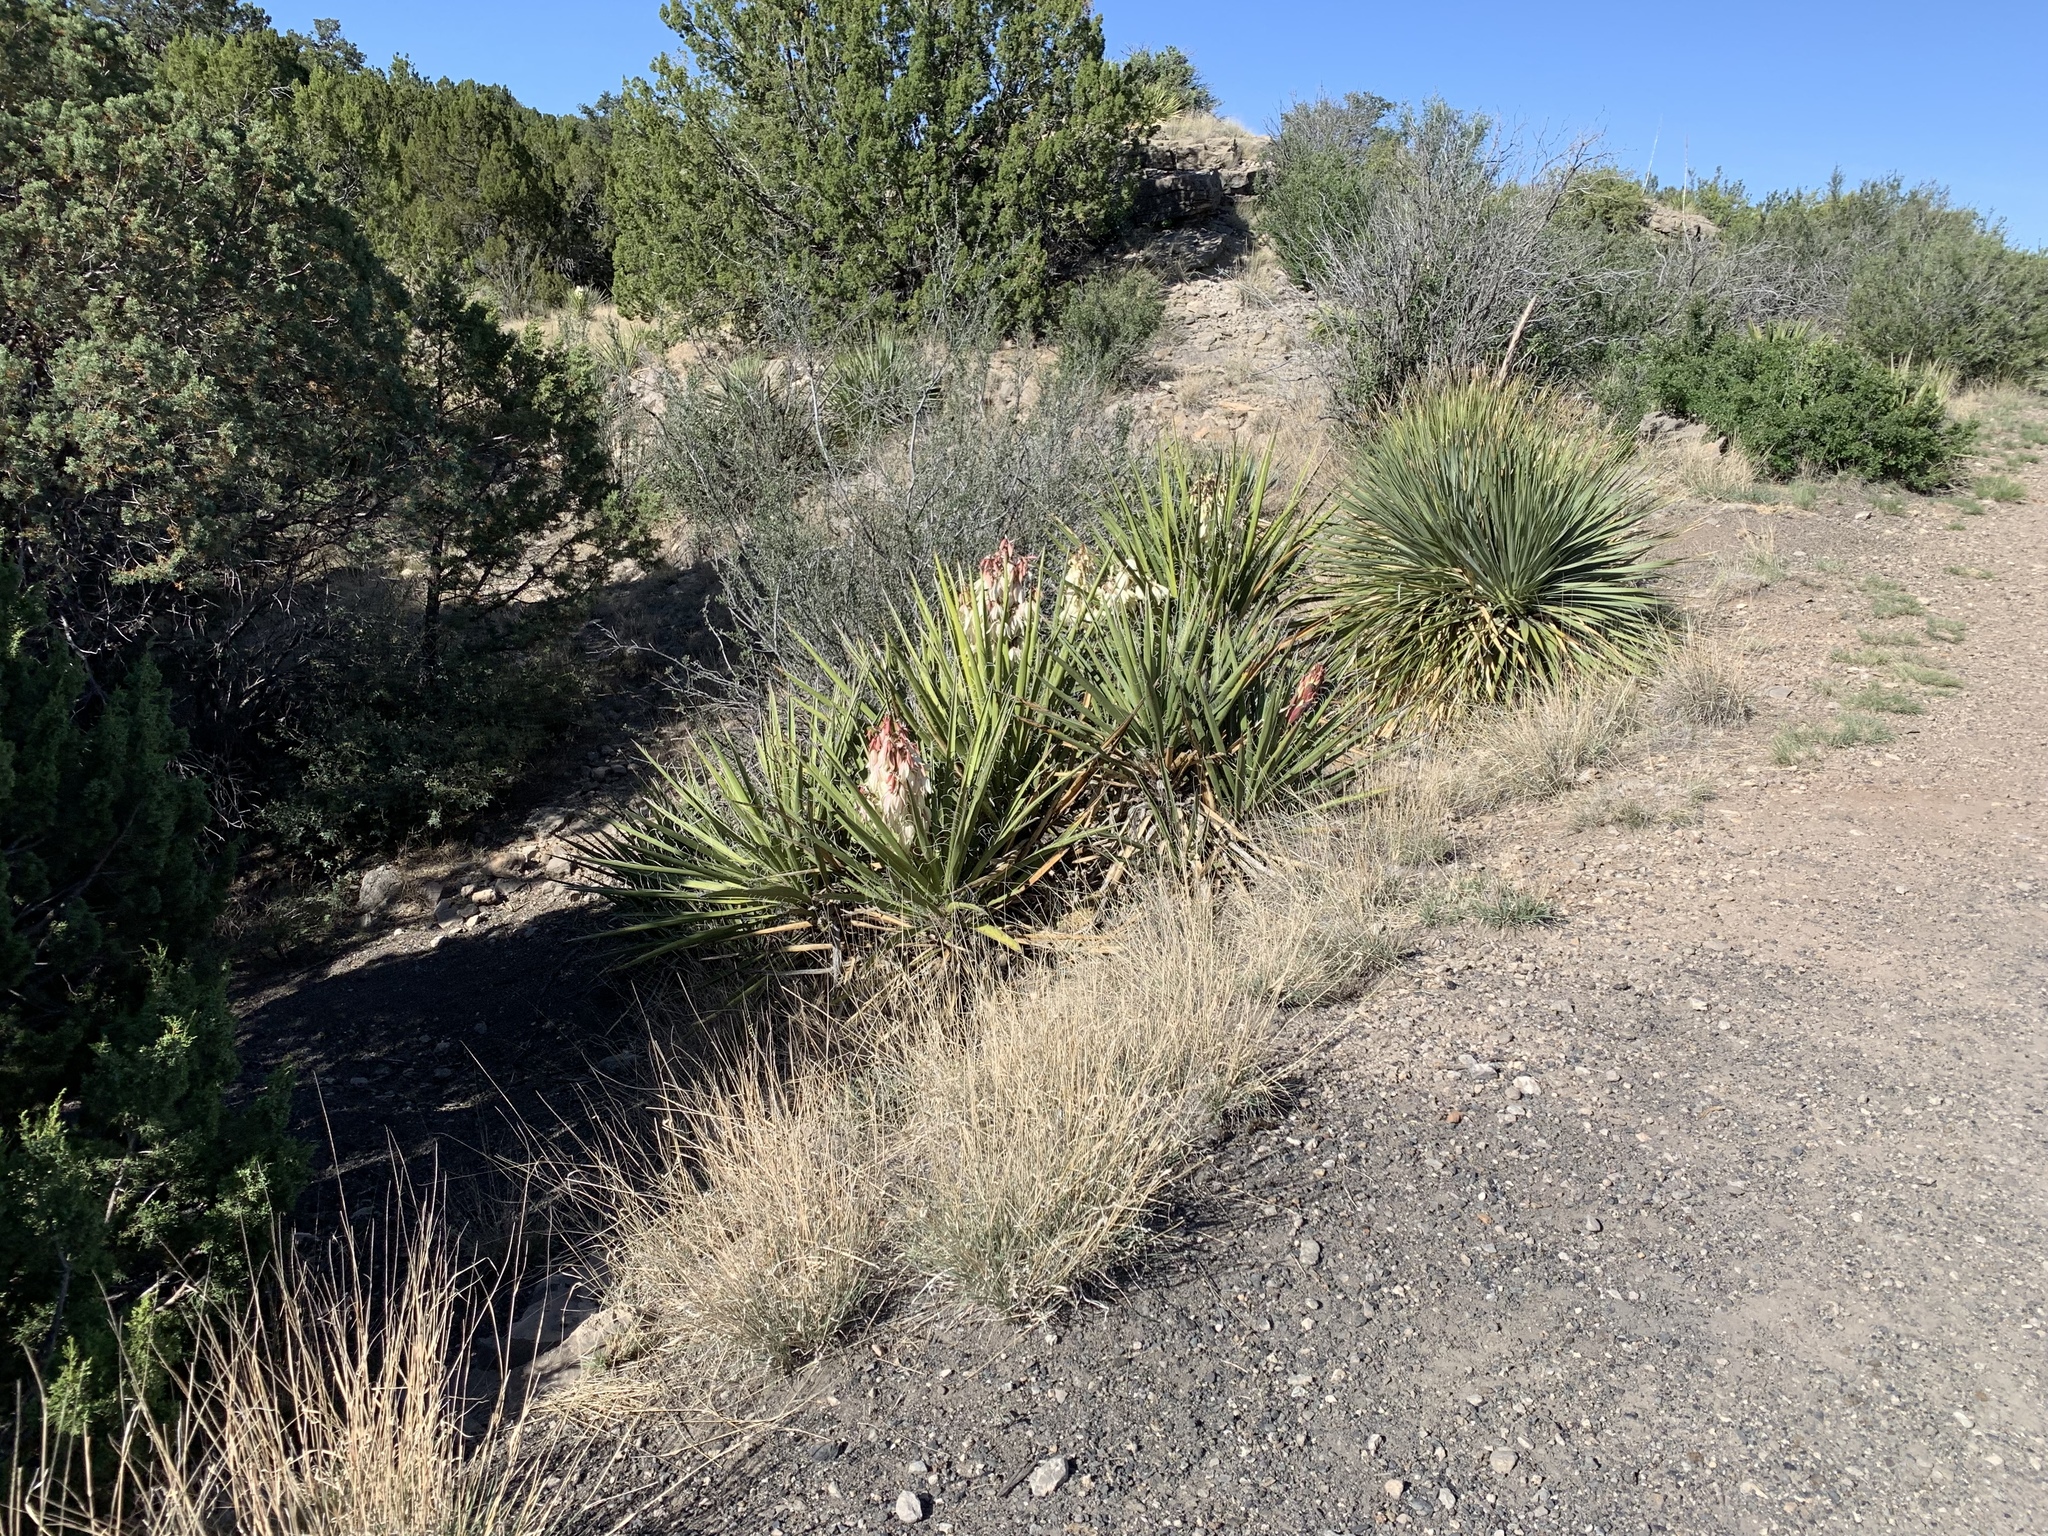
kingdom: Plantae
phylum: Tracheophyta
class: Liliopsida
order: Asparagales
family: Asparagaceae
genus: Yucca
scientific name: Yucca baccata
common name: Banana yucca
